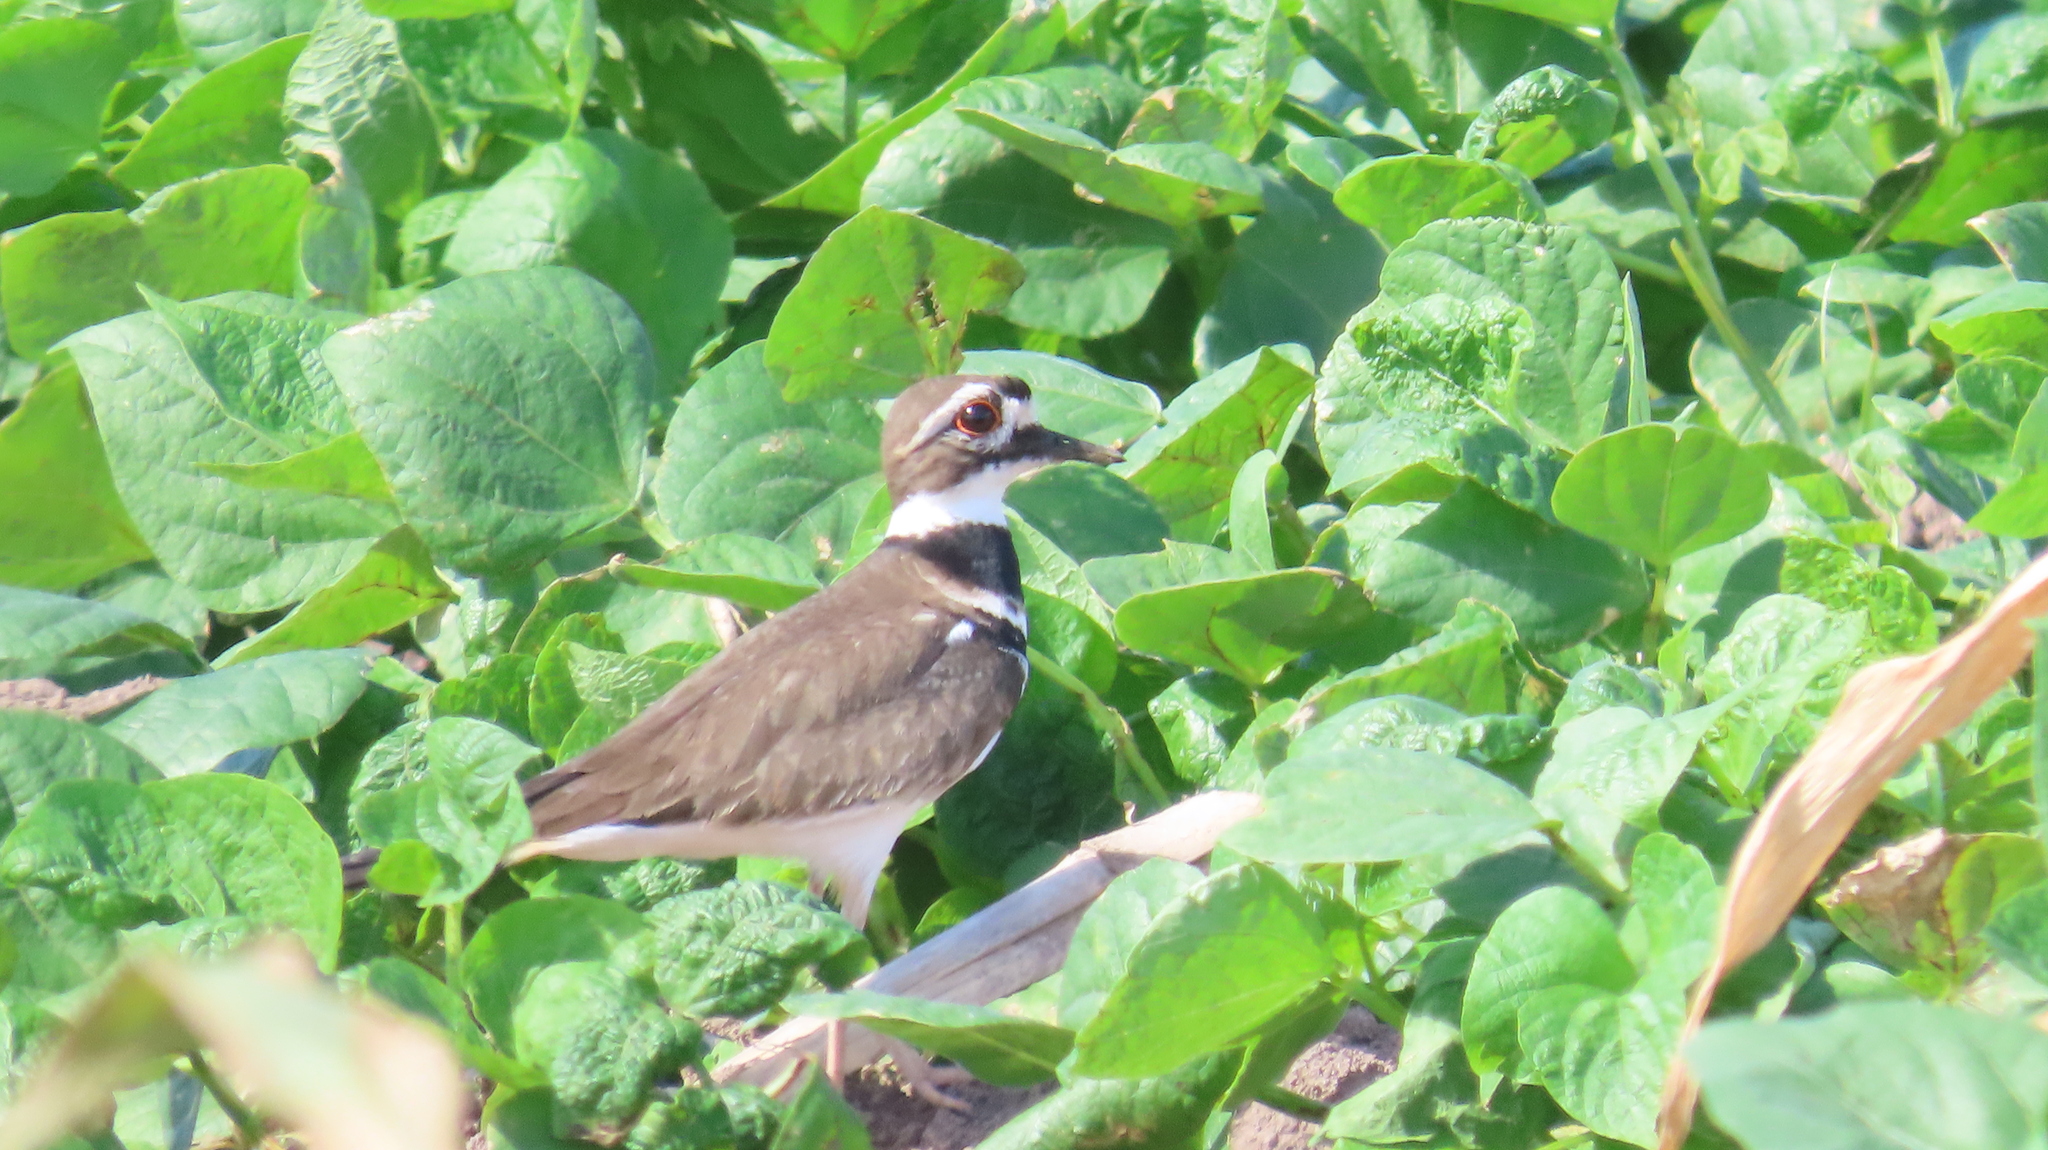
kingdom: Animalia
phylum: Chordata
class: Aves
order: Charadriiformes
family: Charadriidae
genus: Charadrius
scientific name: Charadrius vociferus
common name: Killdeer
